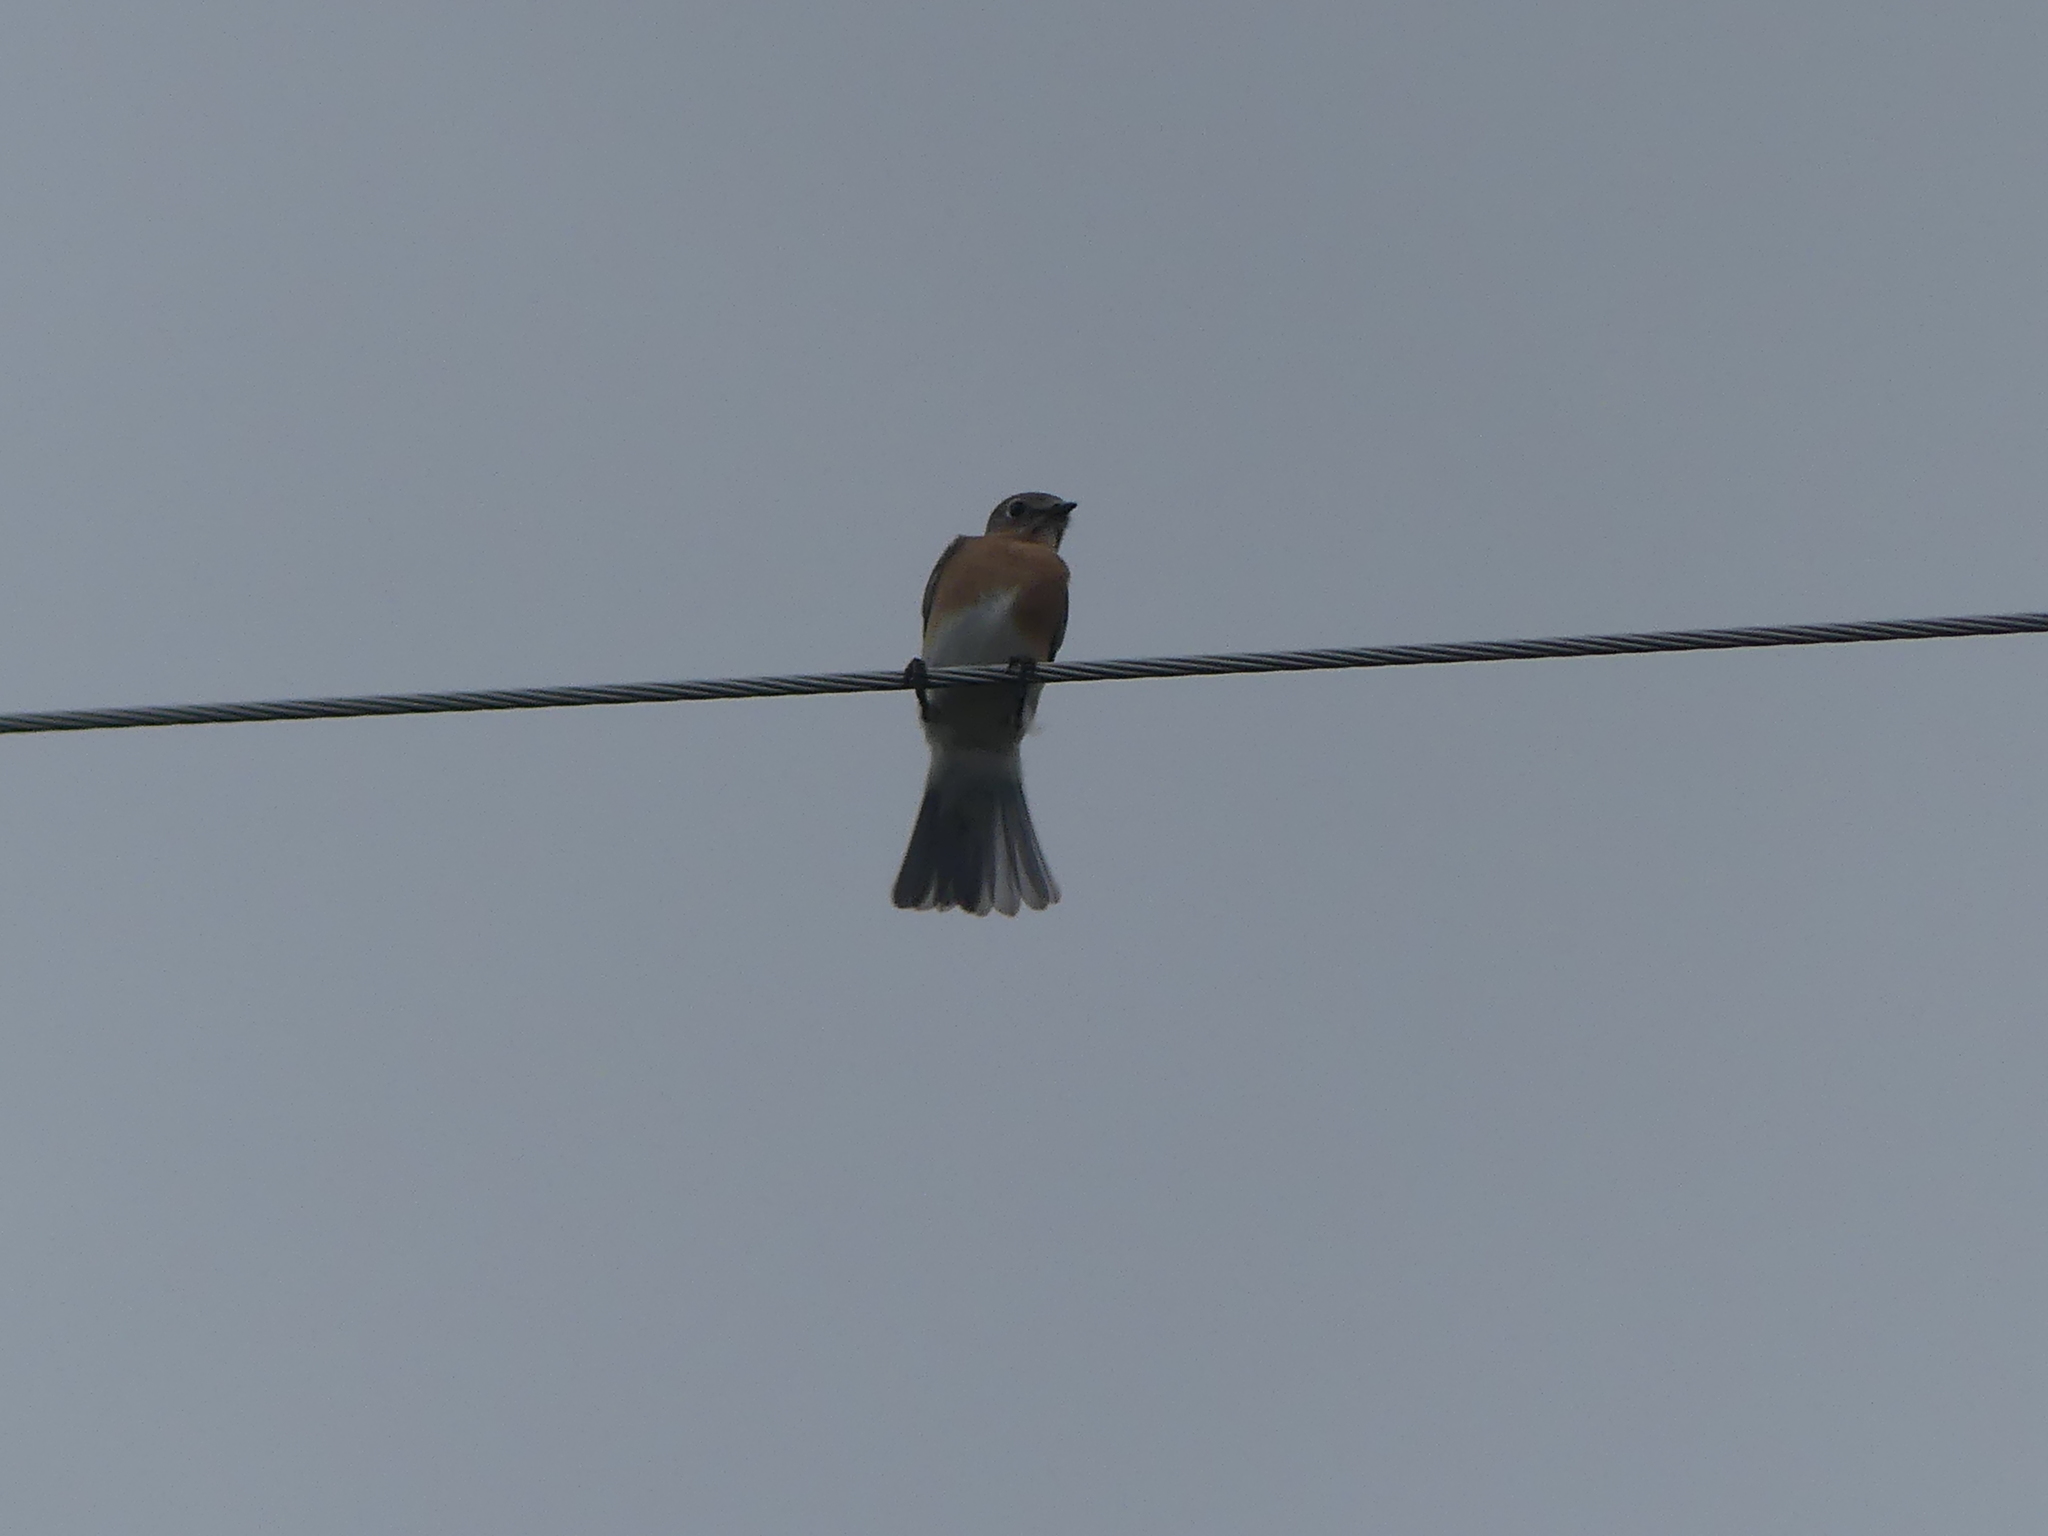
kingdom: Animalia
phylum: Chordata
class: Aves
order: Passeriformes
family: Turdidae
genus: Sialia
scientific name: Sialia sialis
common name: Eastern bluebird
